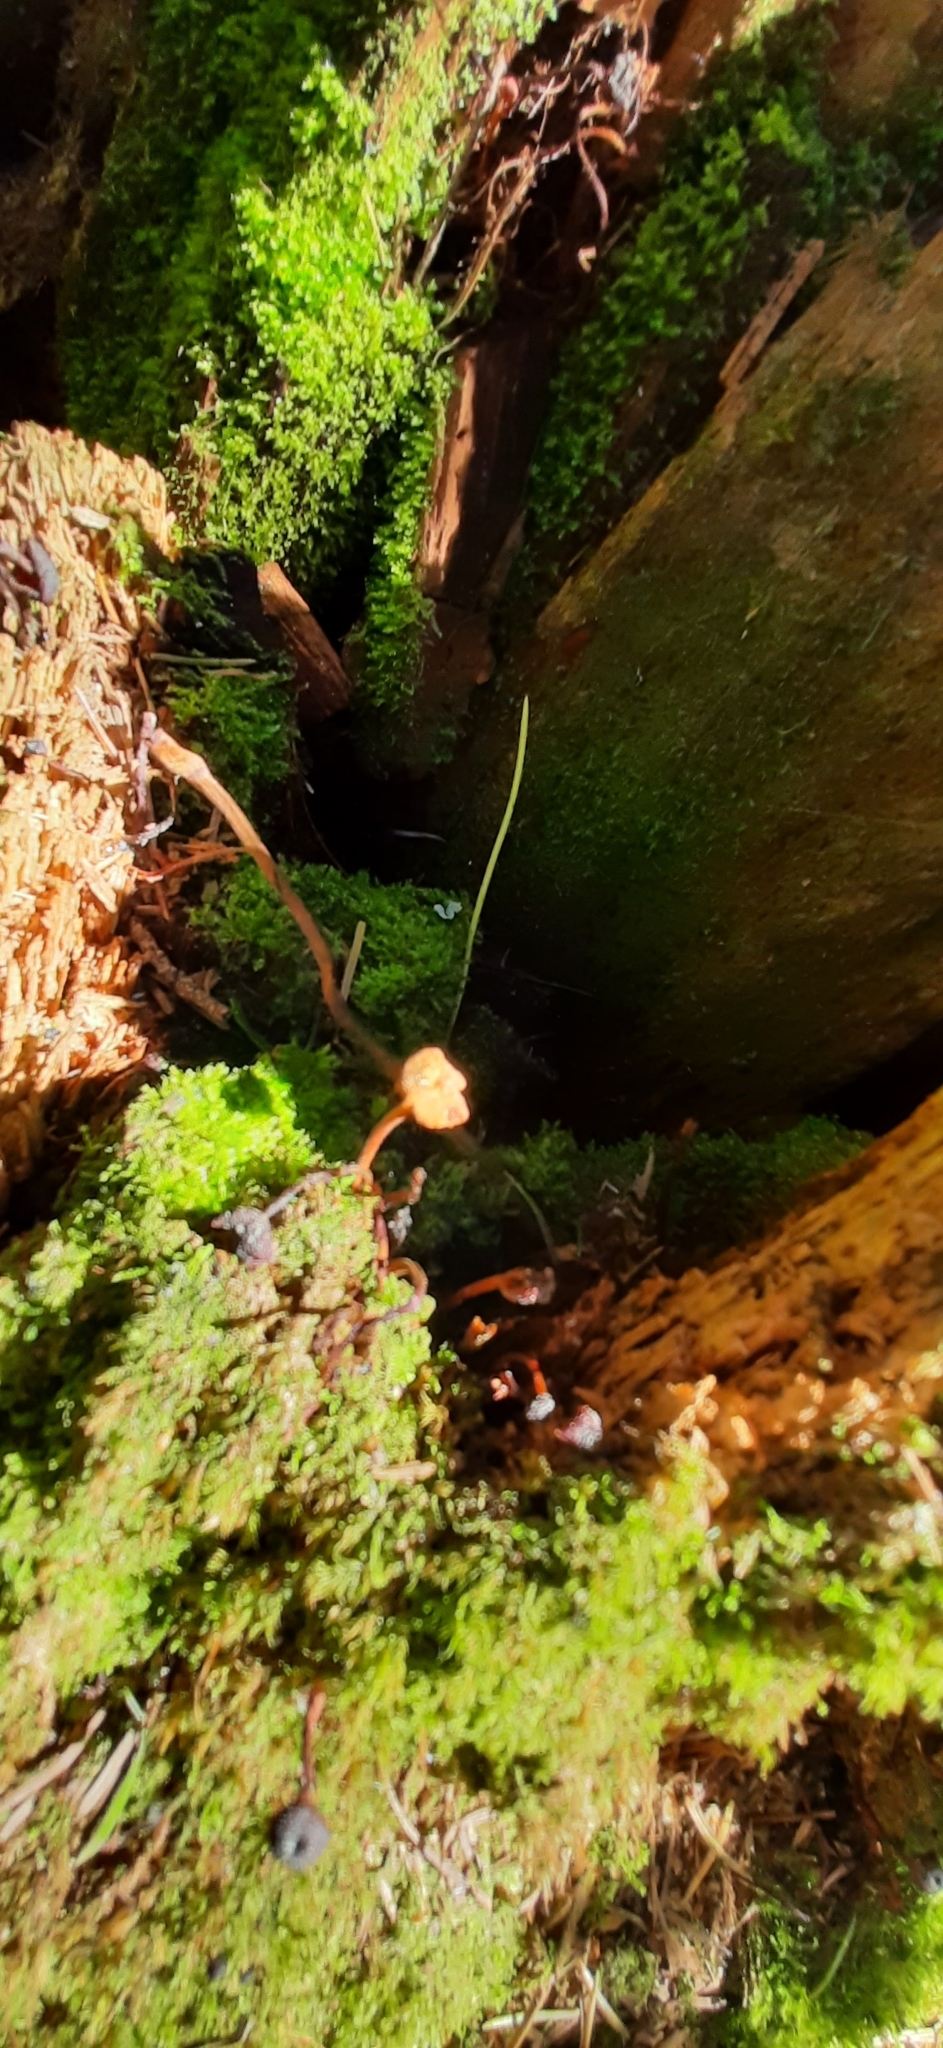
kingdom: Fungi
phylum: Basidiomycota
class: Agaricomycetes
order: Agaricales
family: Mycenaceae
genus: Xeromphalina
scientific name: Xeromphalina campanella
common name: Pinewood gingertail
